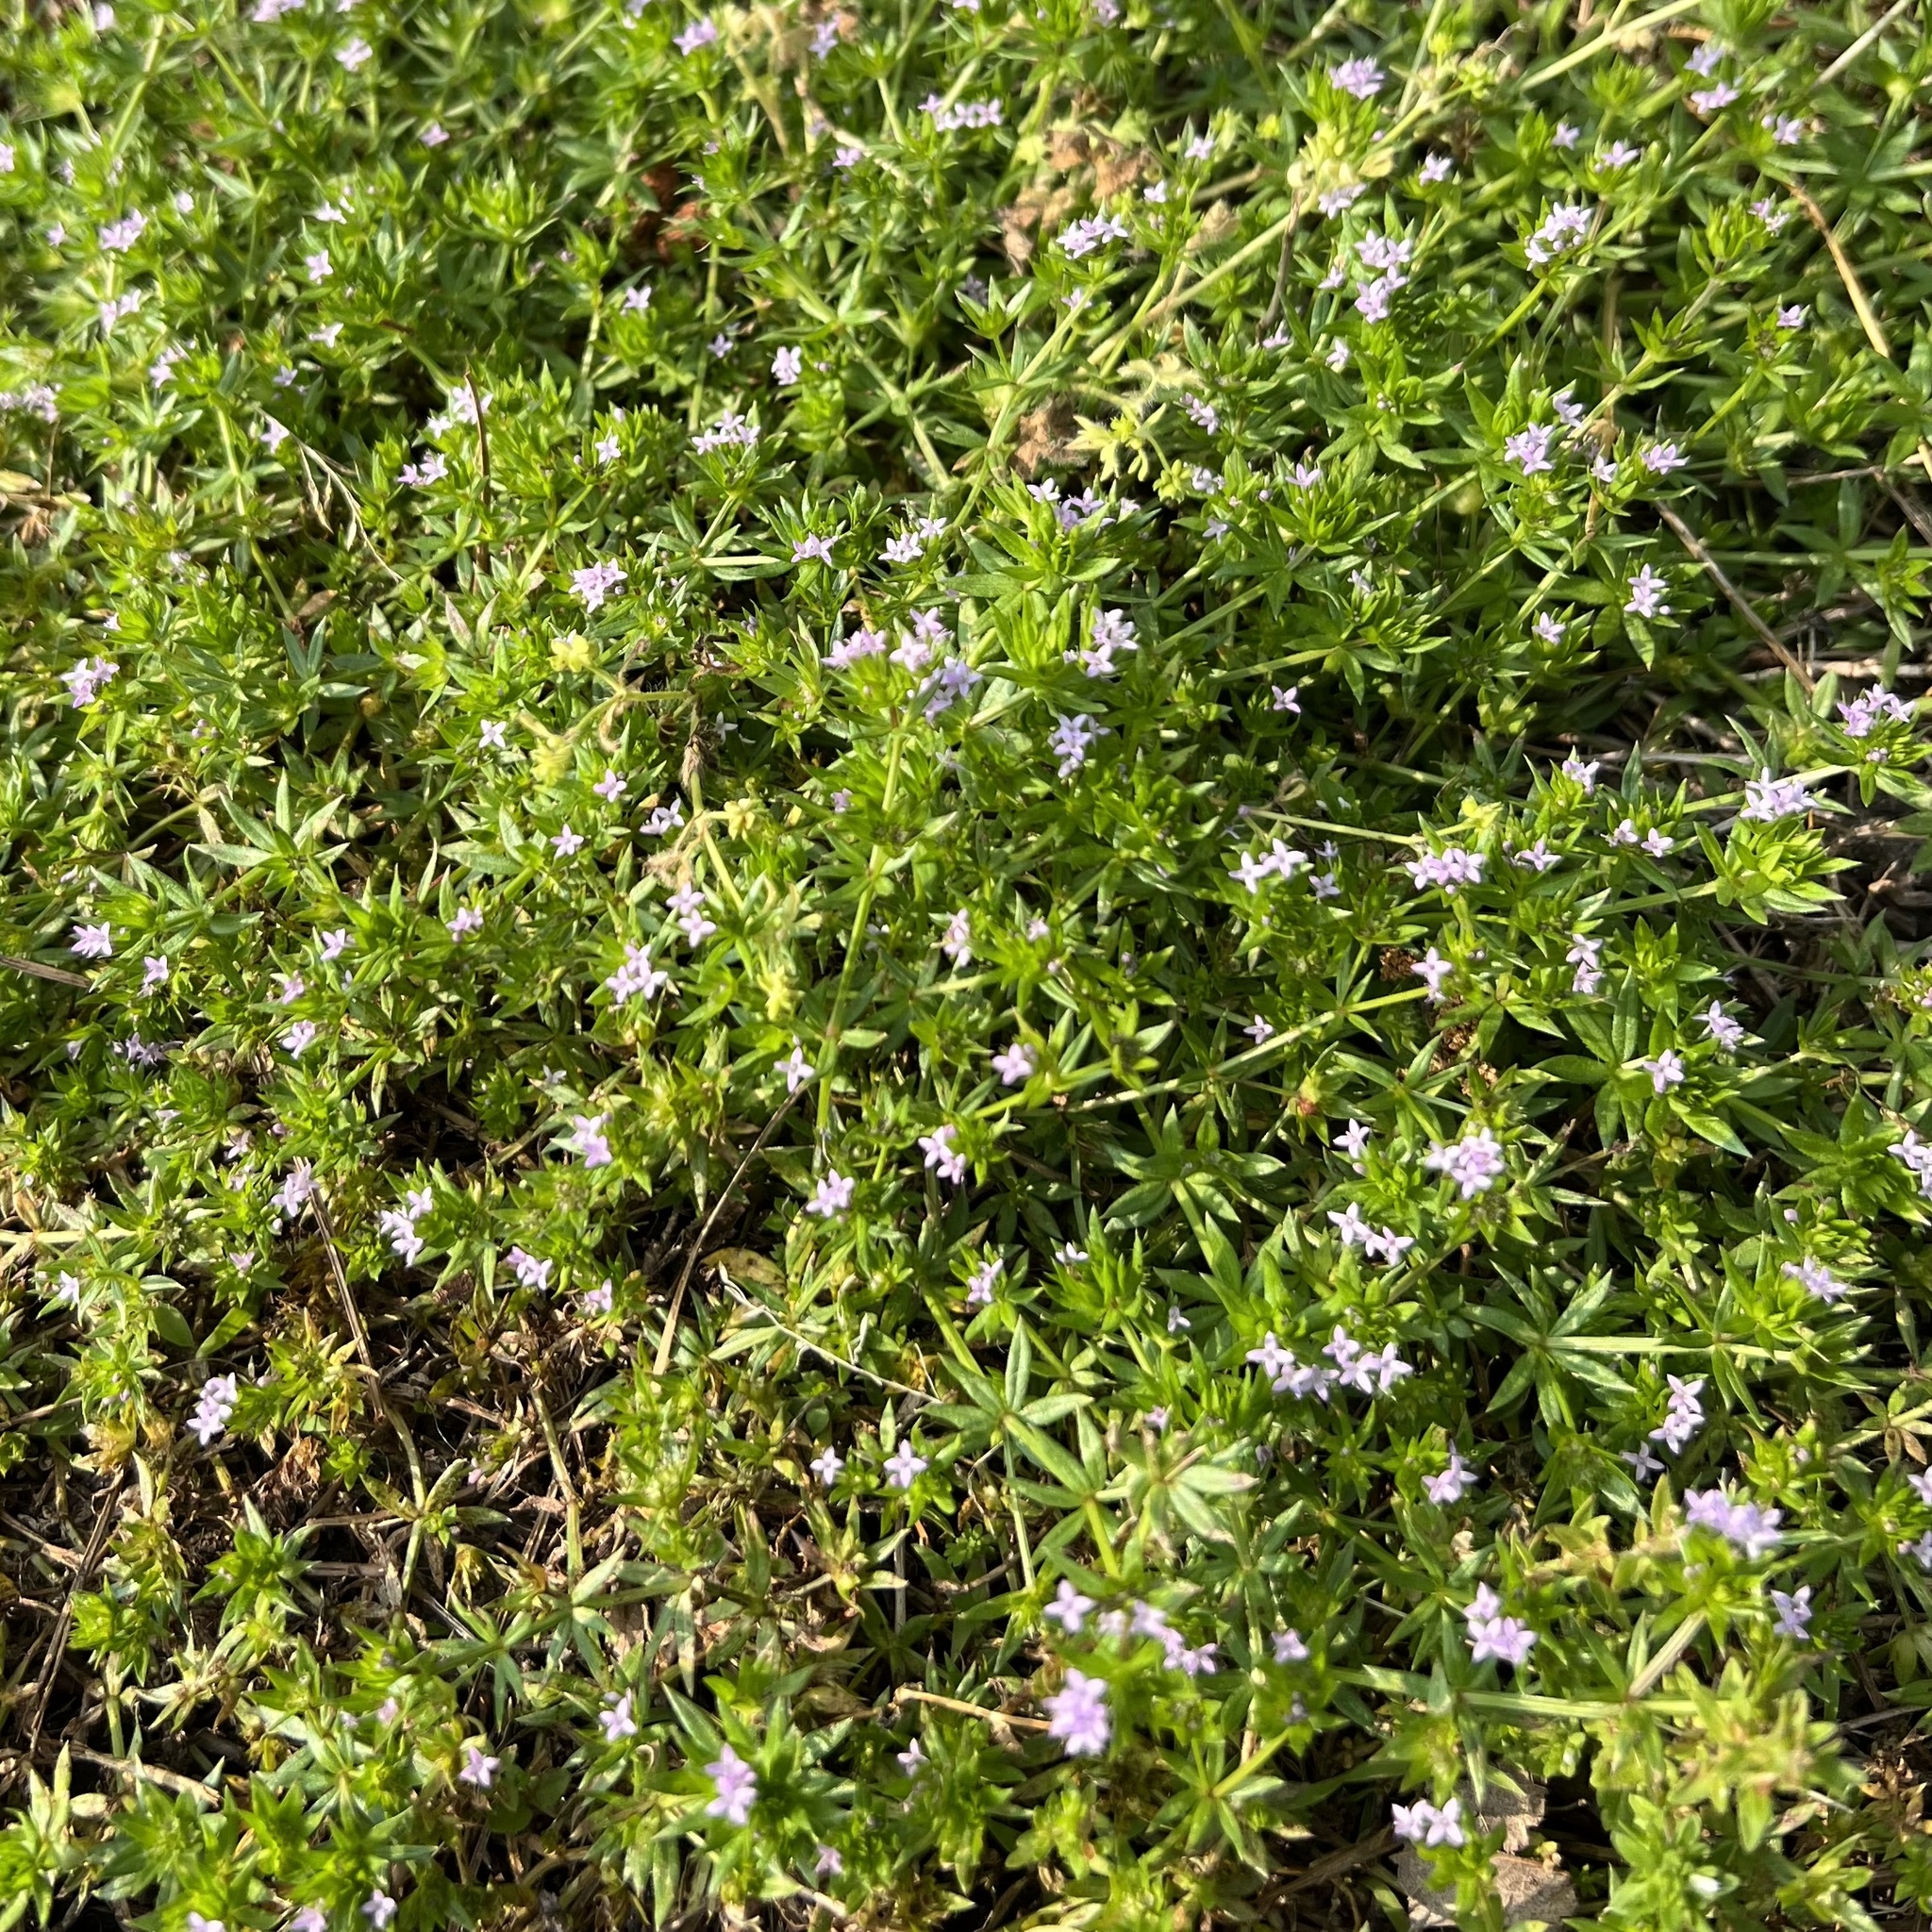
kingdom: Plantae
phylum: Tracheophyta
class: Magnoliopsida
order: Gentianales
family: Rubiaceae
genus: Sherardia
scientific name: Sherardia arvensis
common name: Field madder
